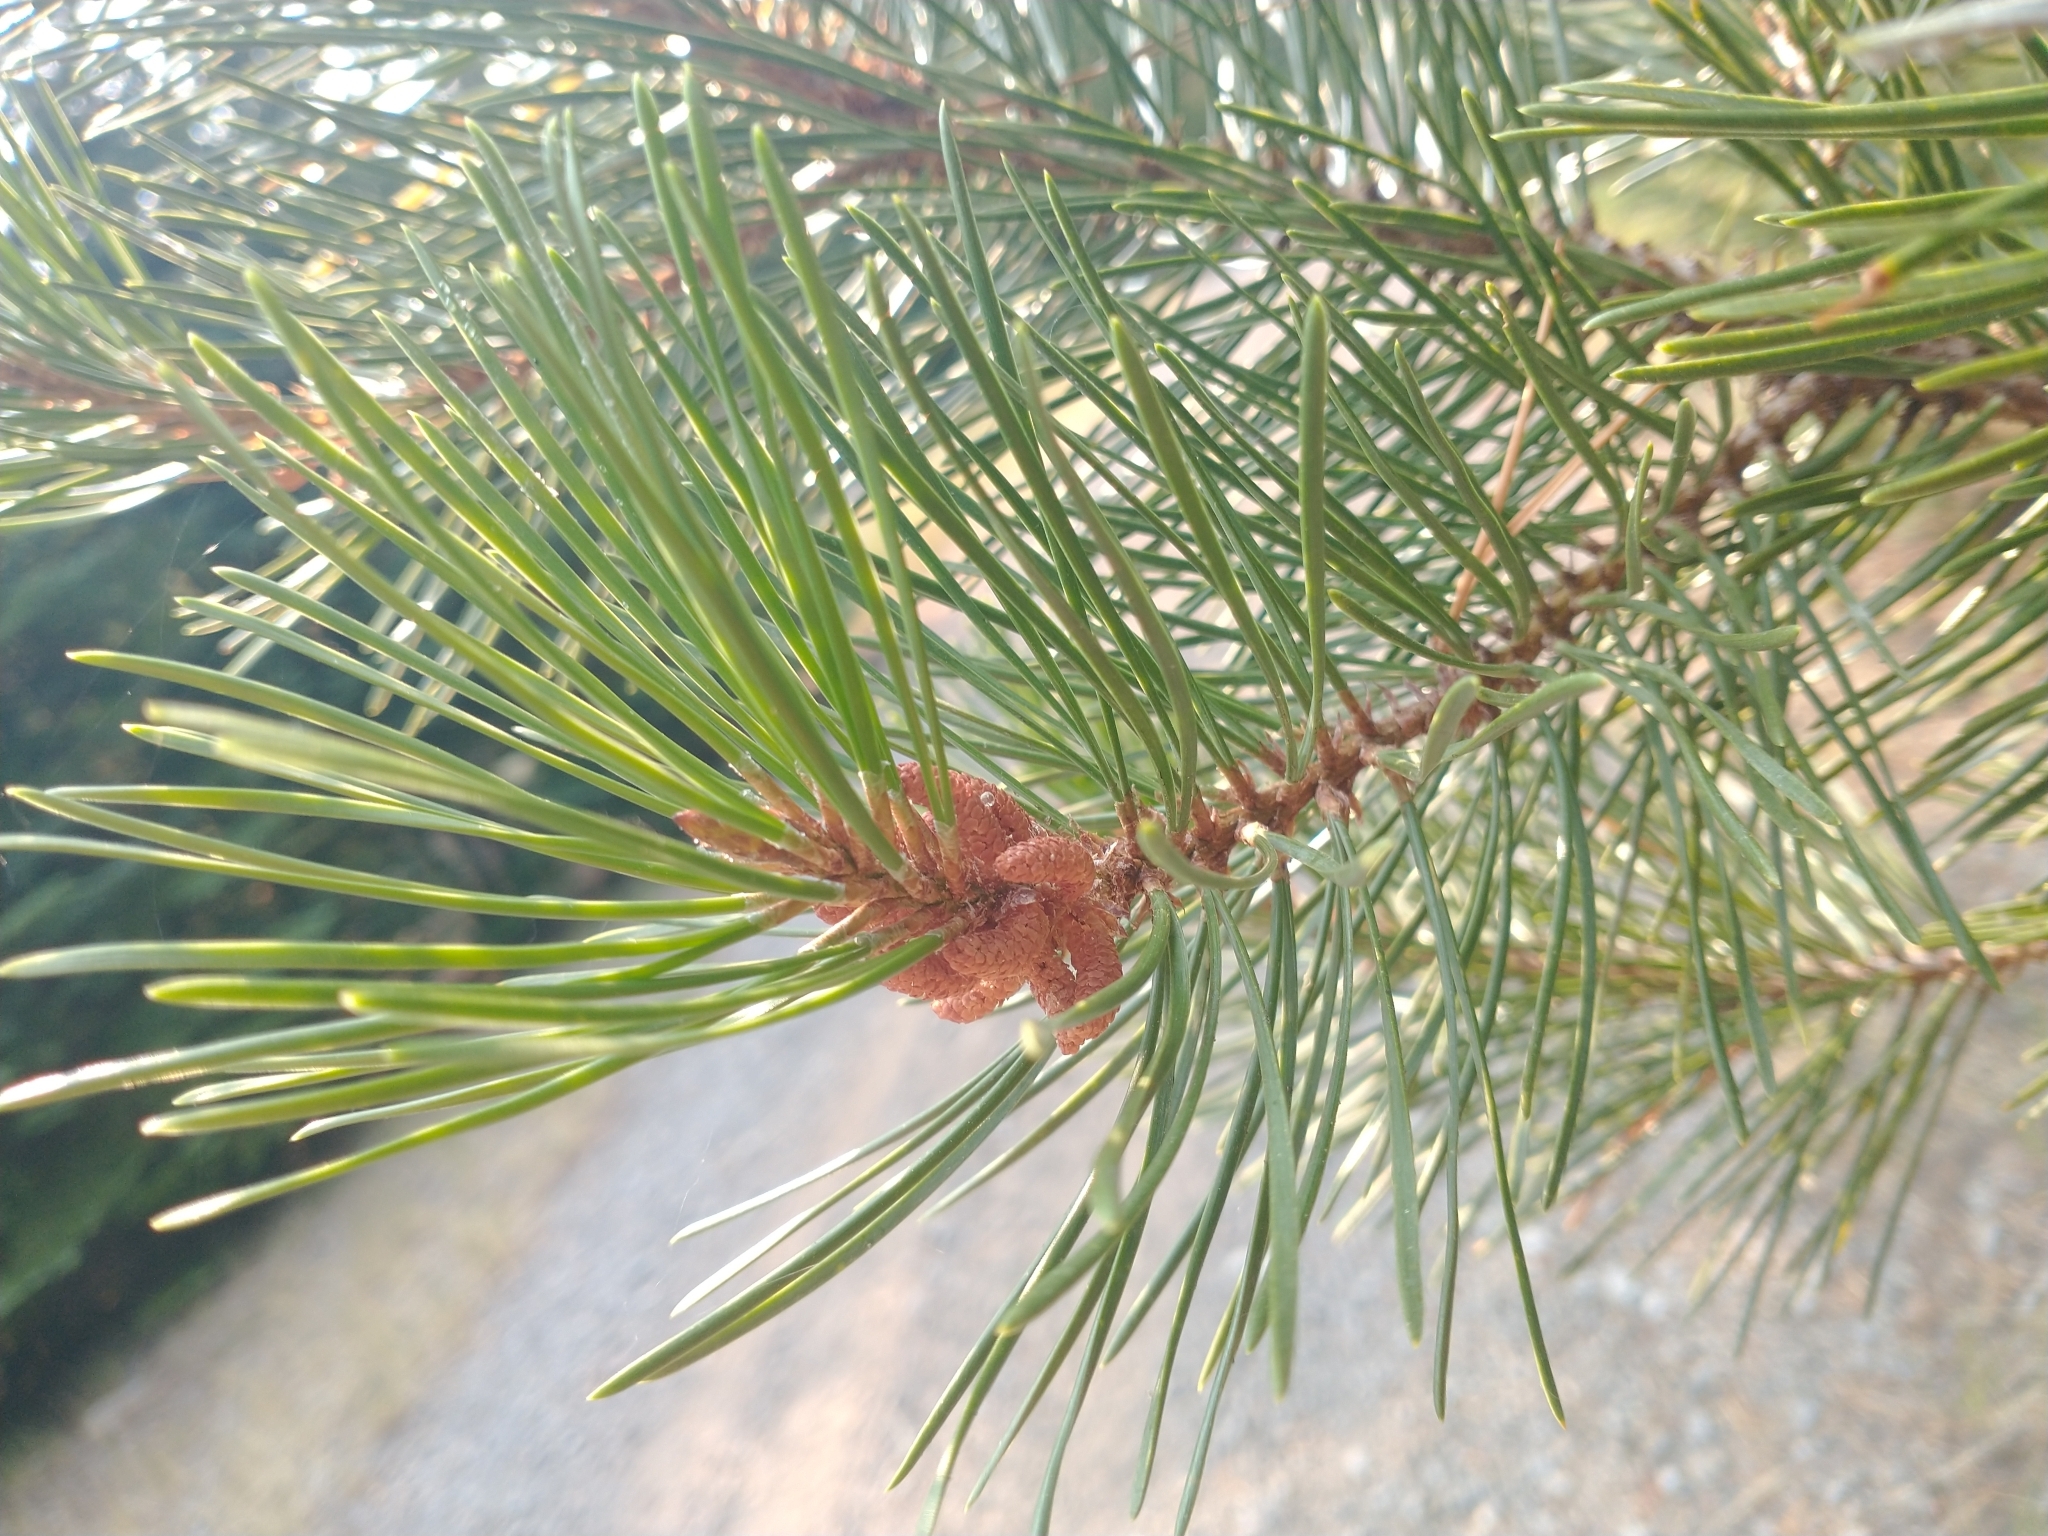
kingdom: Plantae
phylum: Tracheophyta
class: Pinopsida
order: Pinales
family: Pinaceae
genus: Pinus
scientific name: Pinus contorta
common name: Lodgepole pine
